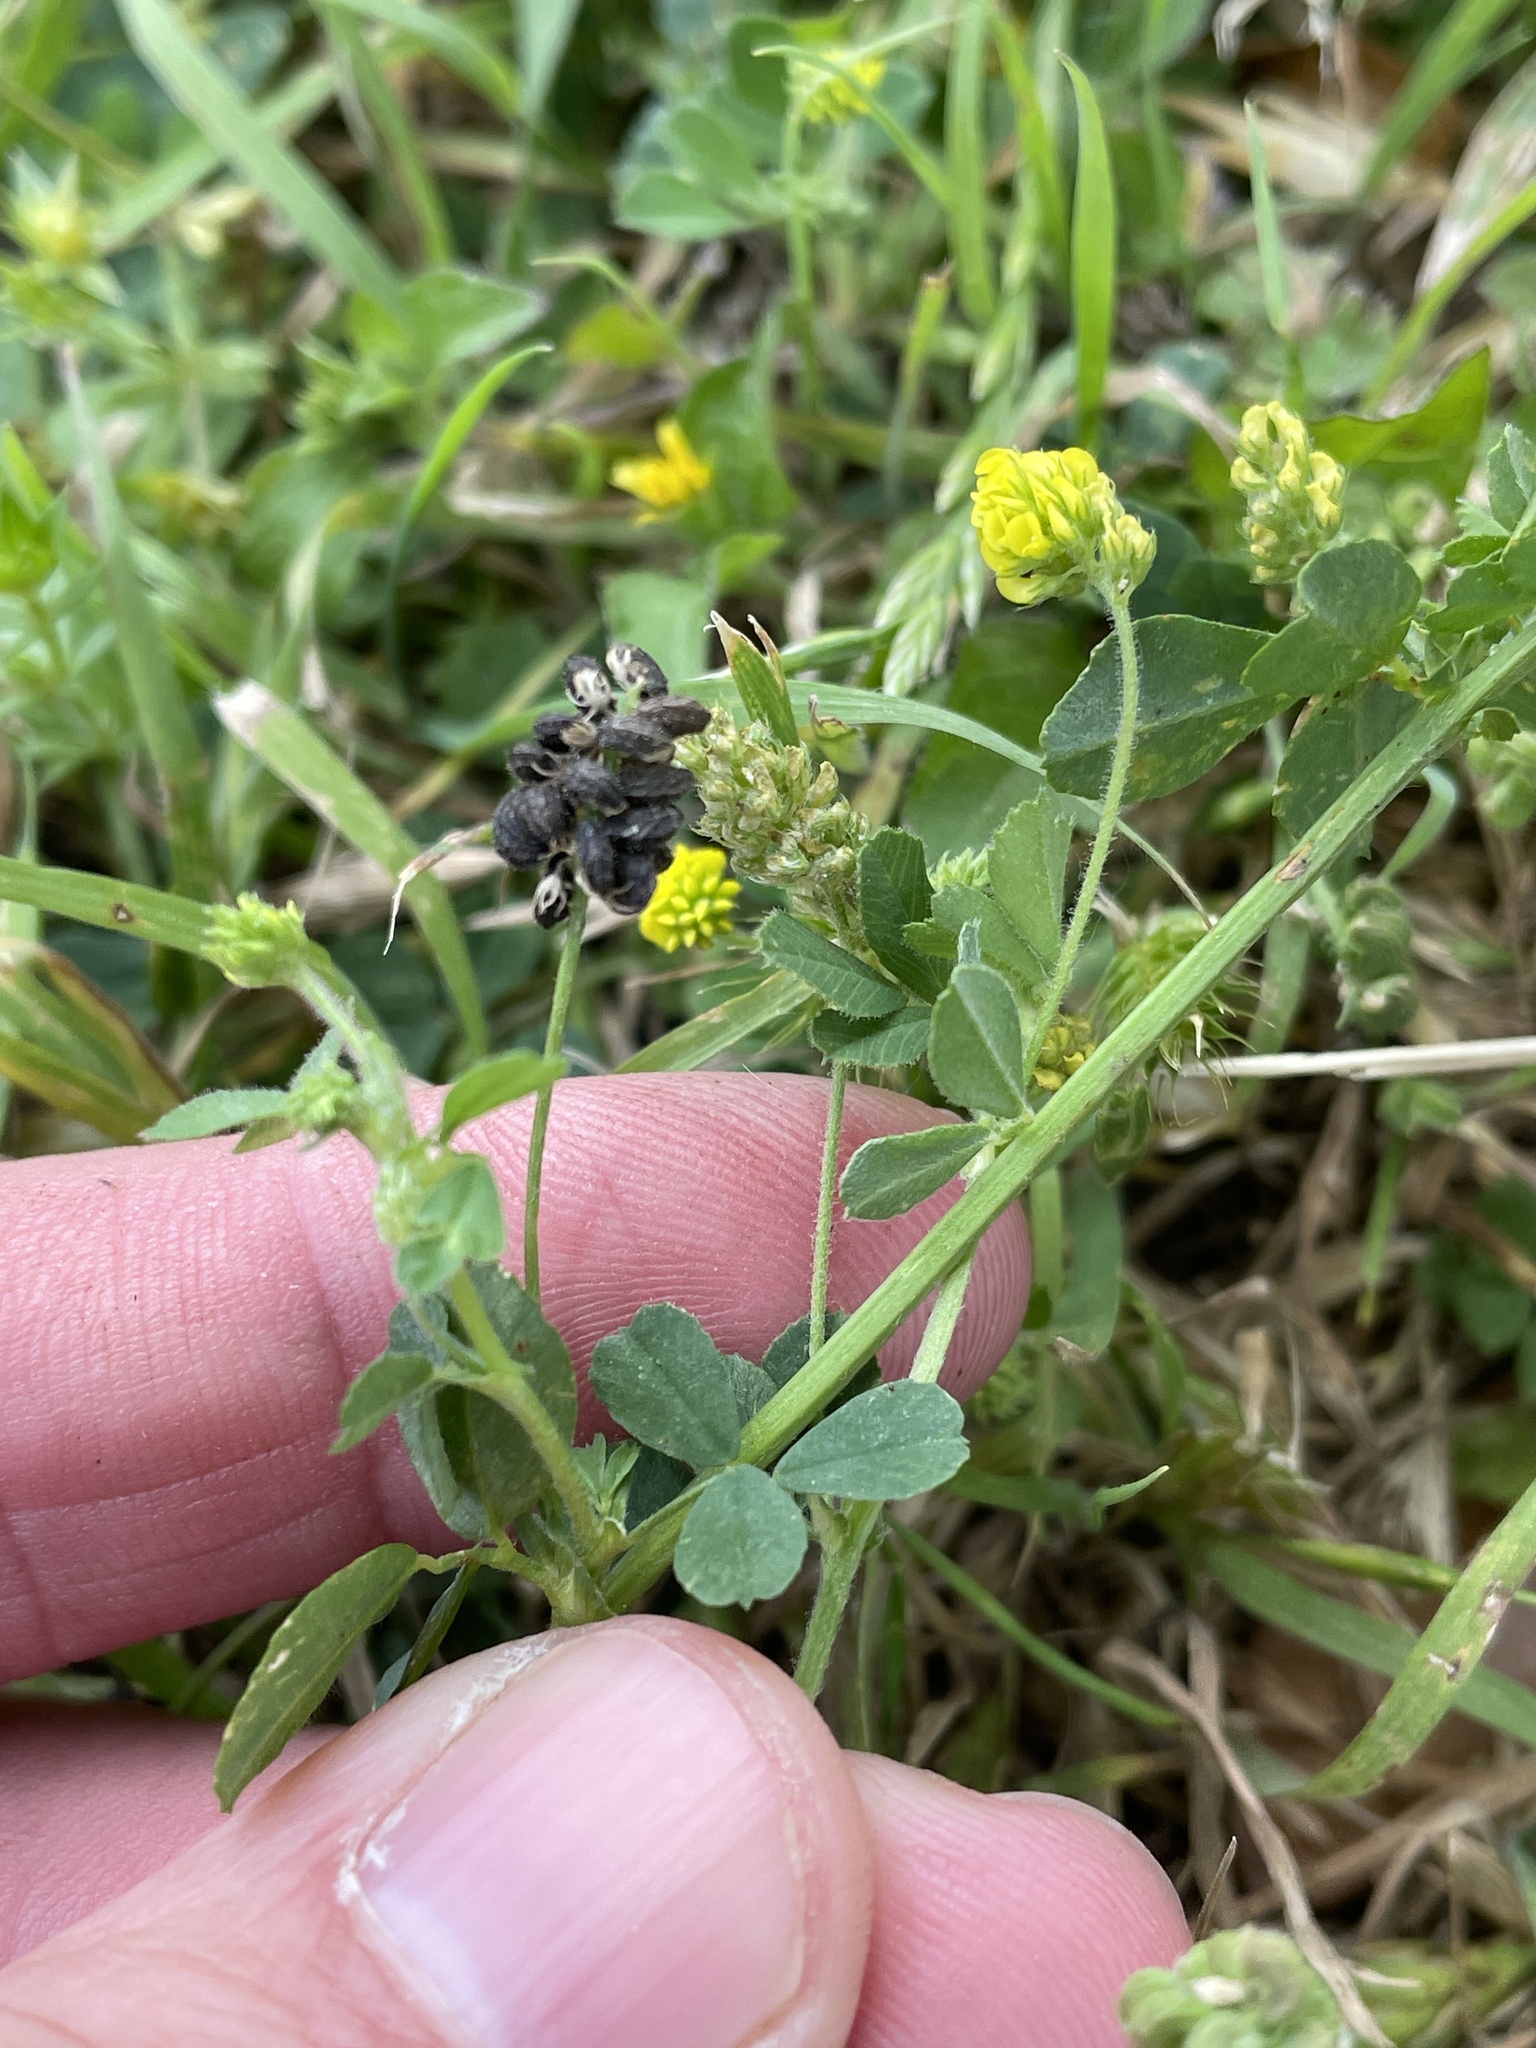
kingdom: Plantae
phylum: Tracheophyta
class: Magnoliopsida
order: Fabales
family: Fabaceae
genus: Medicago
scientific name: Medicago lupulina
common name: Black medick
